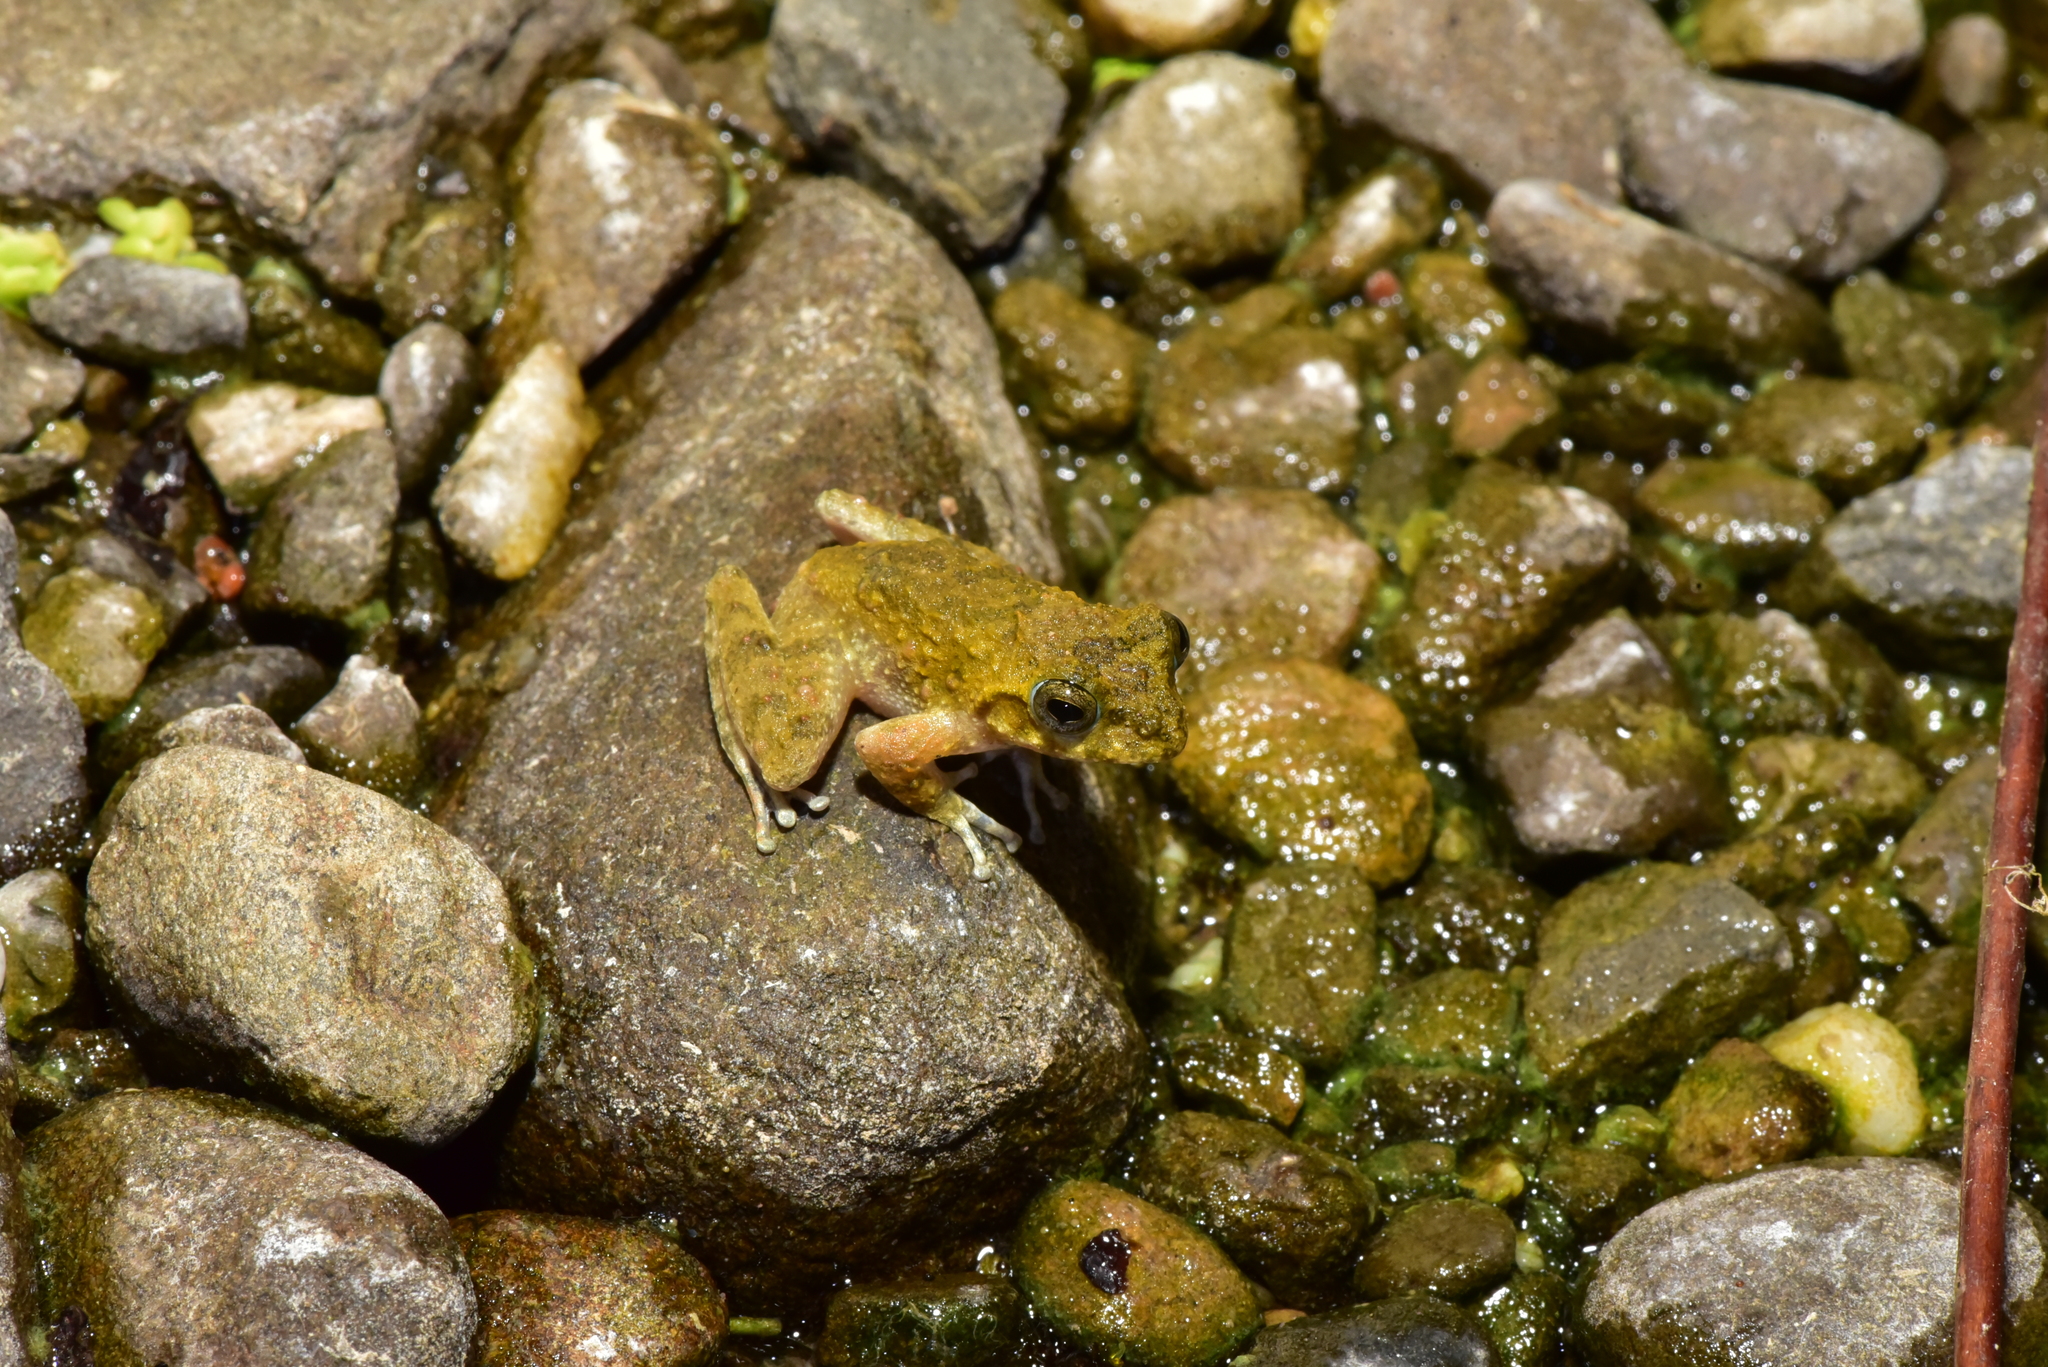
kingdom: Animalia
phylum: Chordata
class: Amphibia
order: Anura
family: Rhacophoridae
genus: Buergeria
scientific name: Buergeria otai
